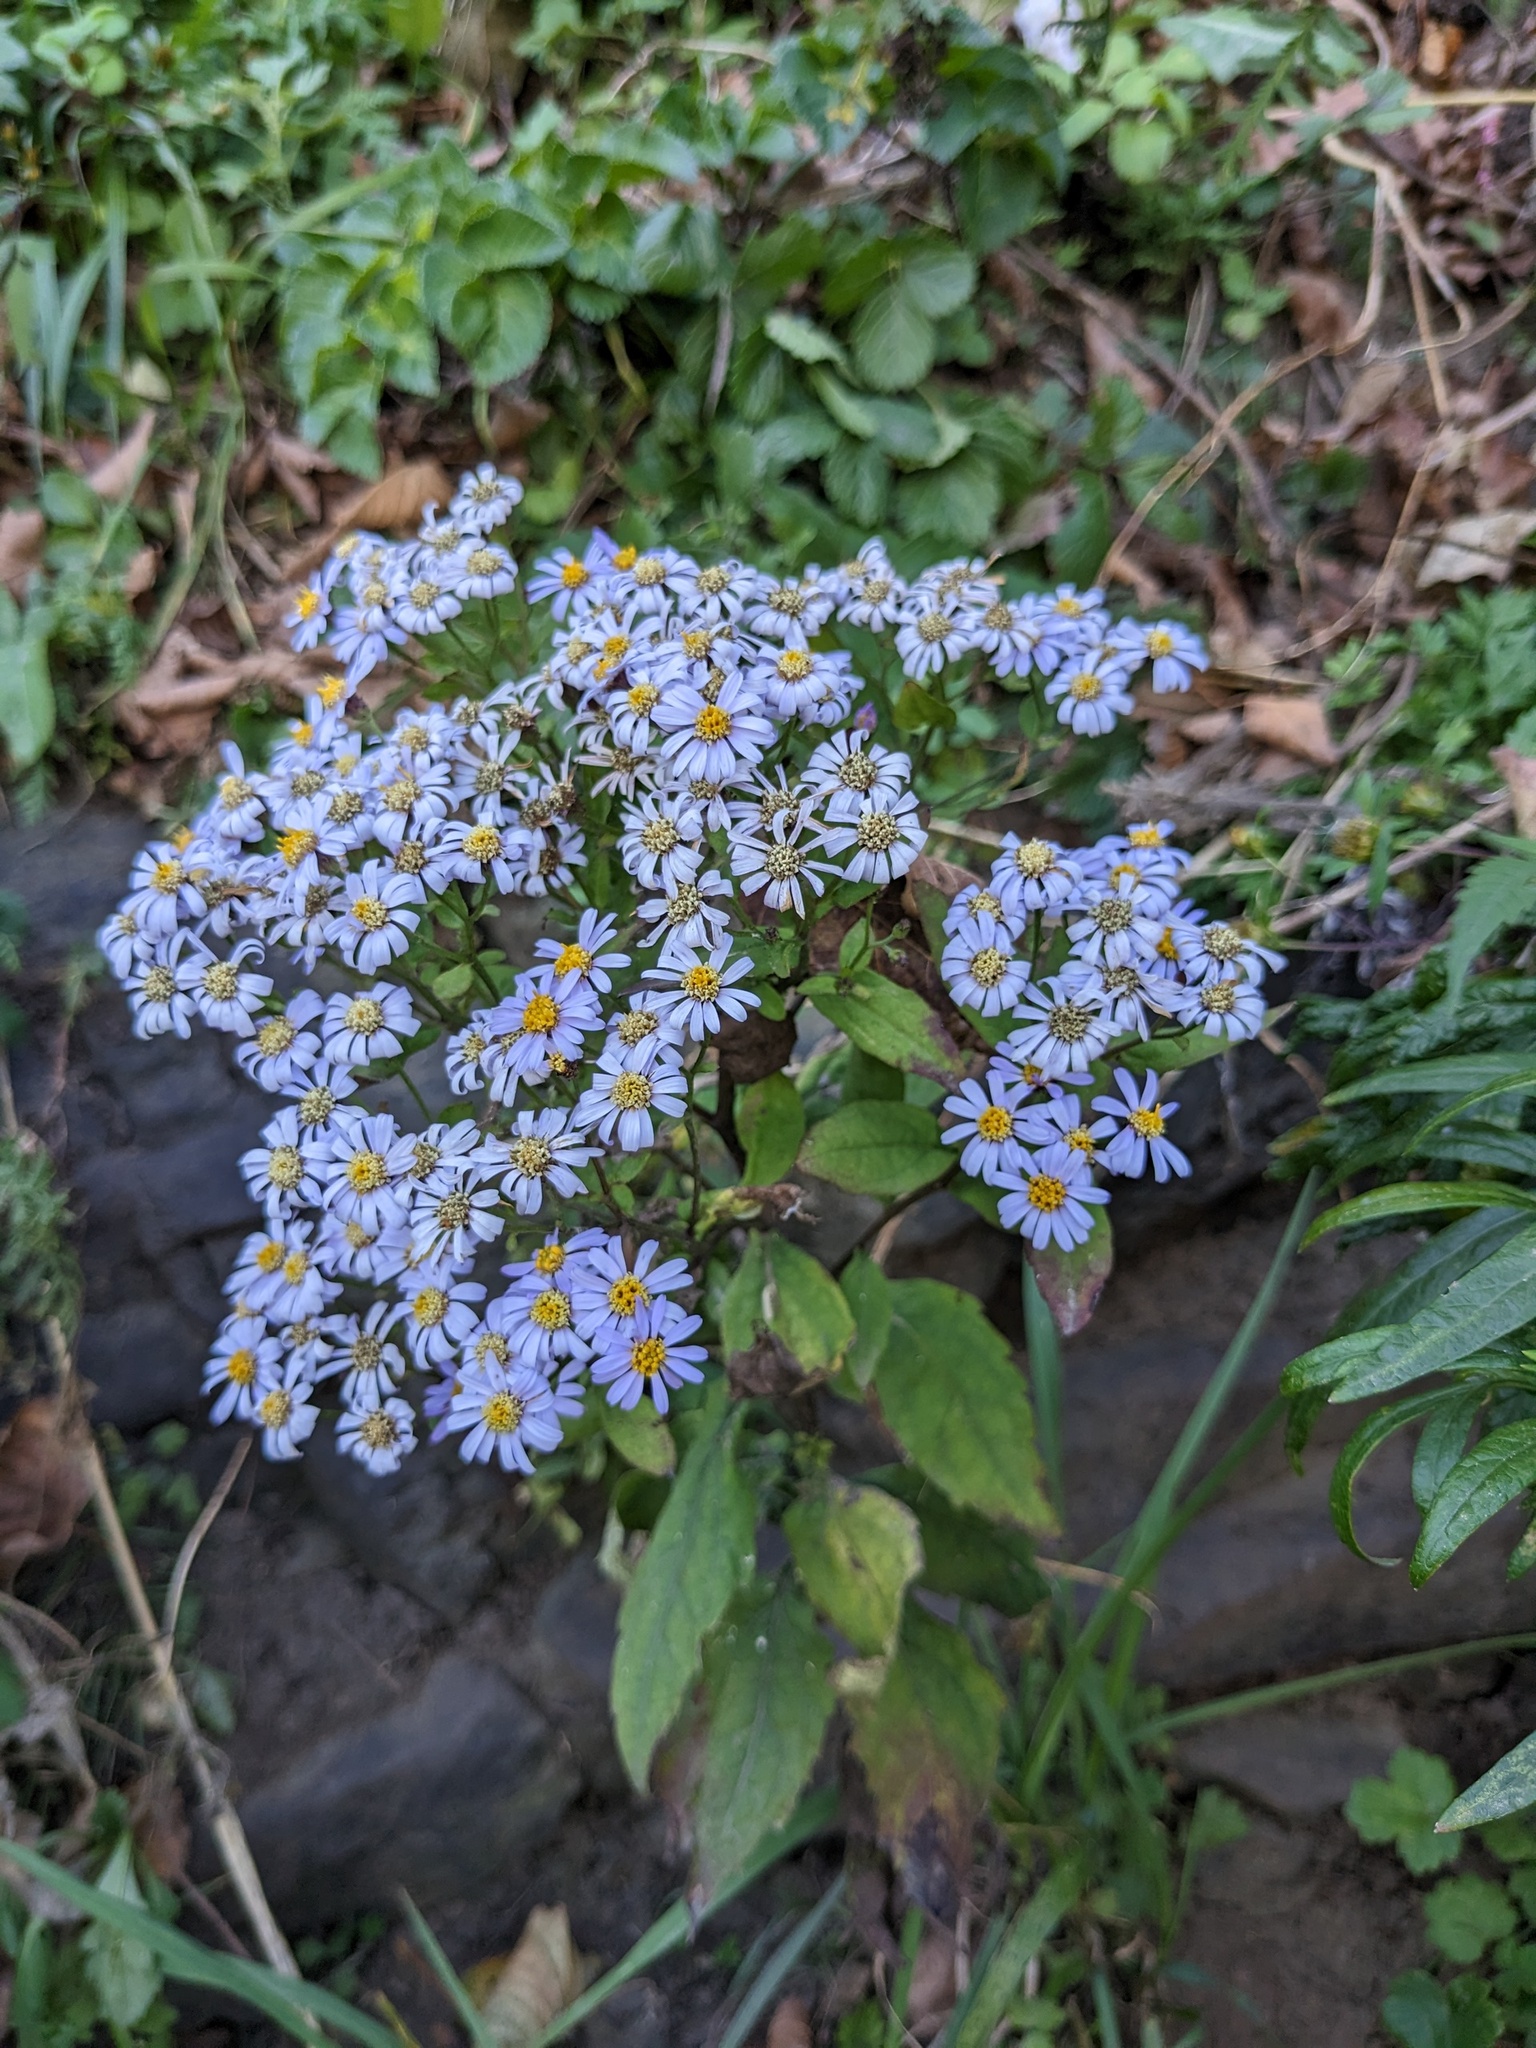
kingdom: Plantae
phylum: Tracheophyta
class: Magnoliopsida
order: Asterales
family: Asteraceae
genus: Aster
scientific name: Aster ageratoides
